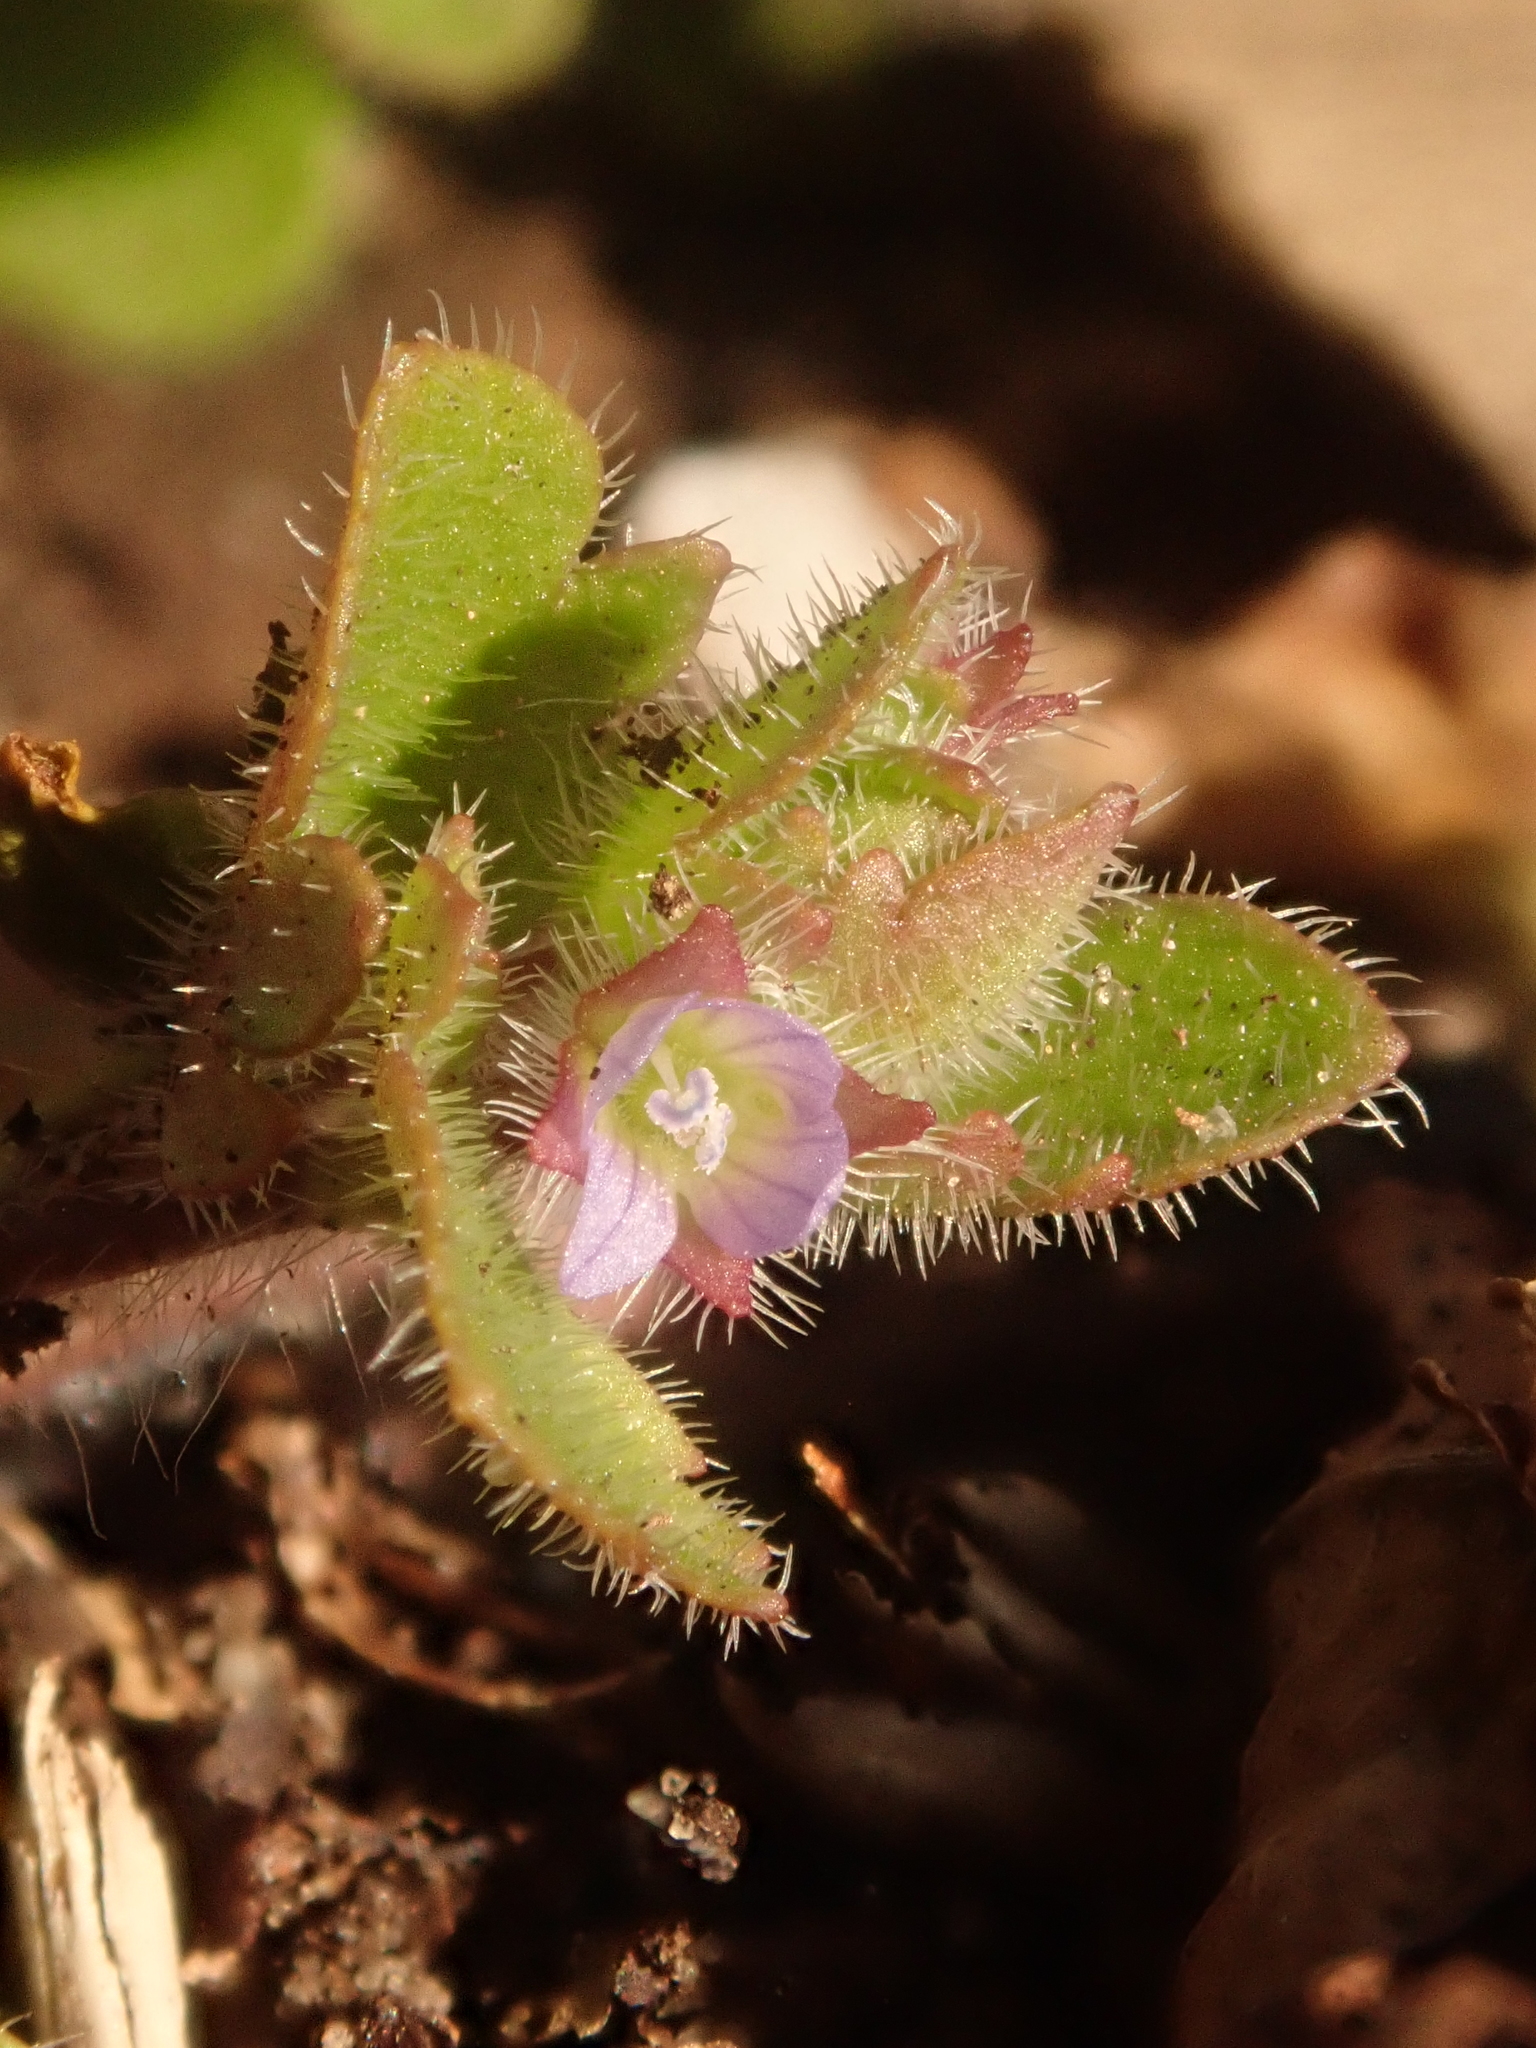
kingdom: Plantae
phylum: Tracheophyta
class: Magnoliopsida
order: Lamiales
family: Plantaginaceae
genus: Veronica
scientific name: Veronica sublobata
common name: False ivy-leaved speedwell
